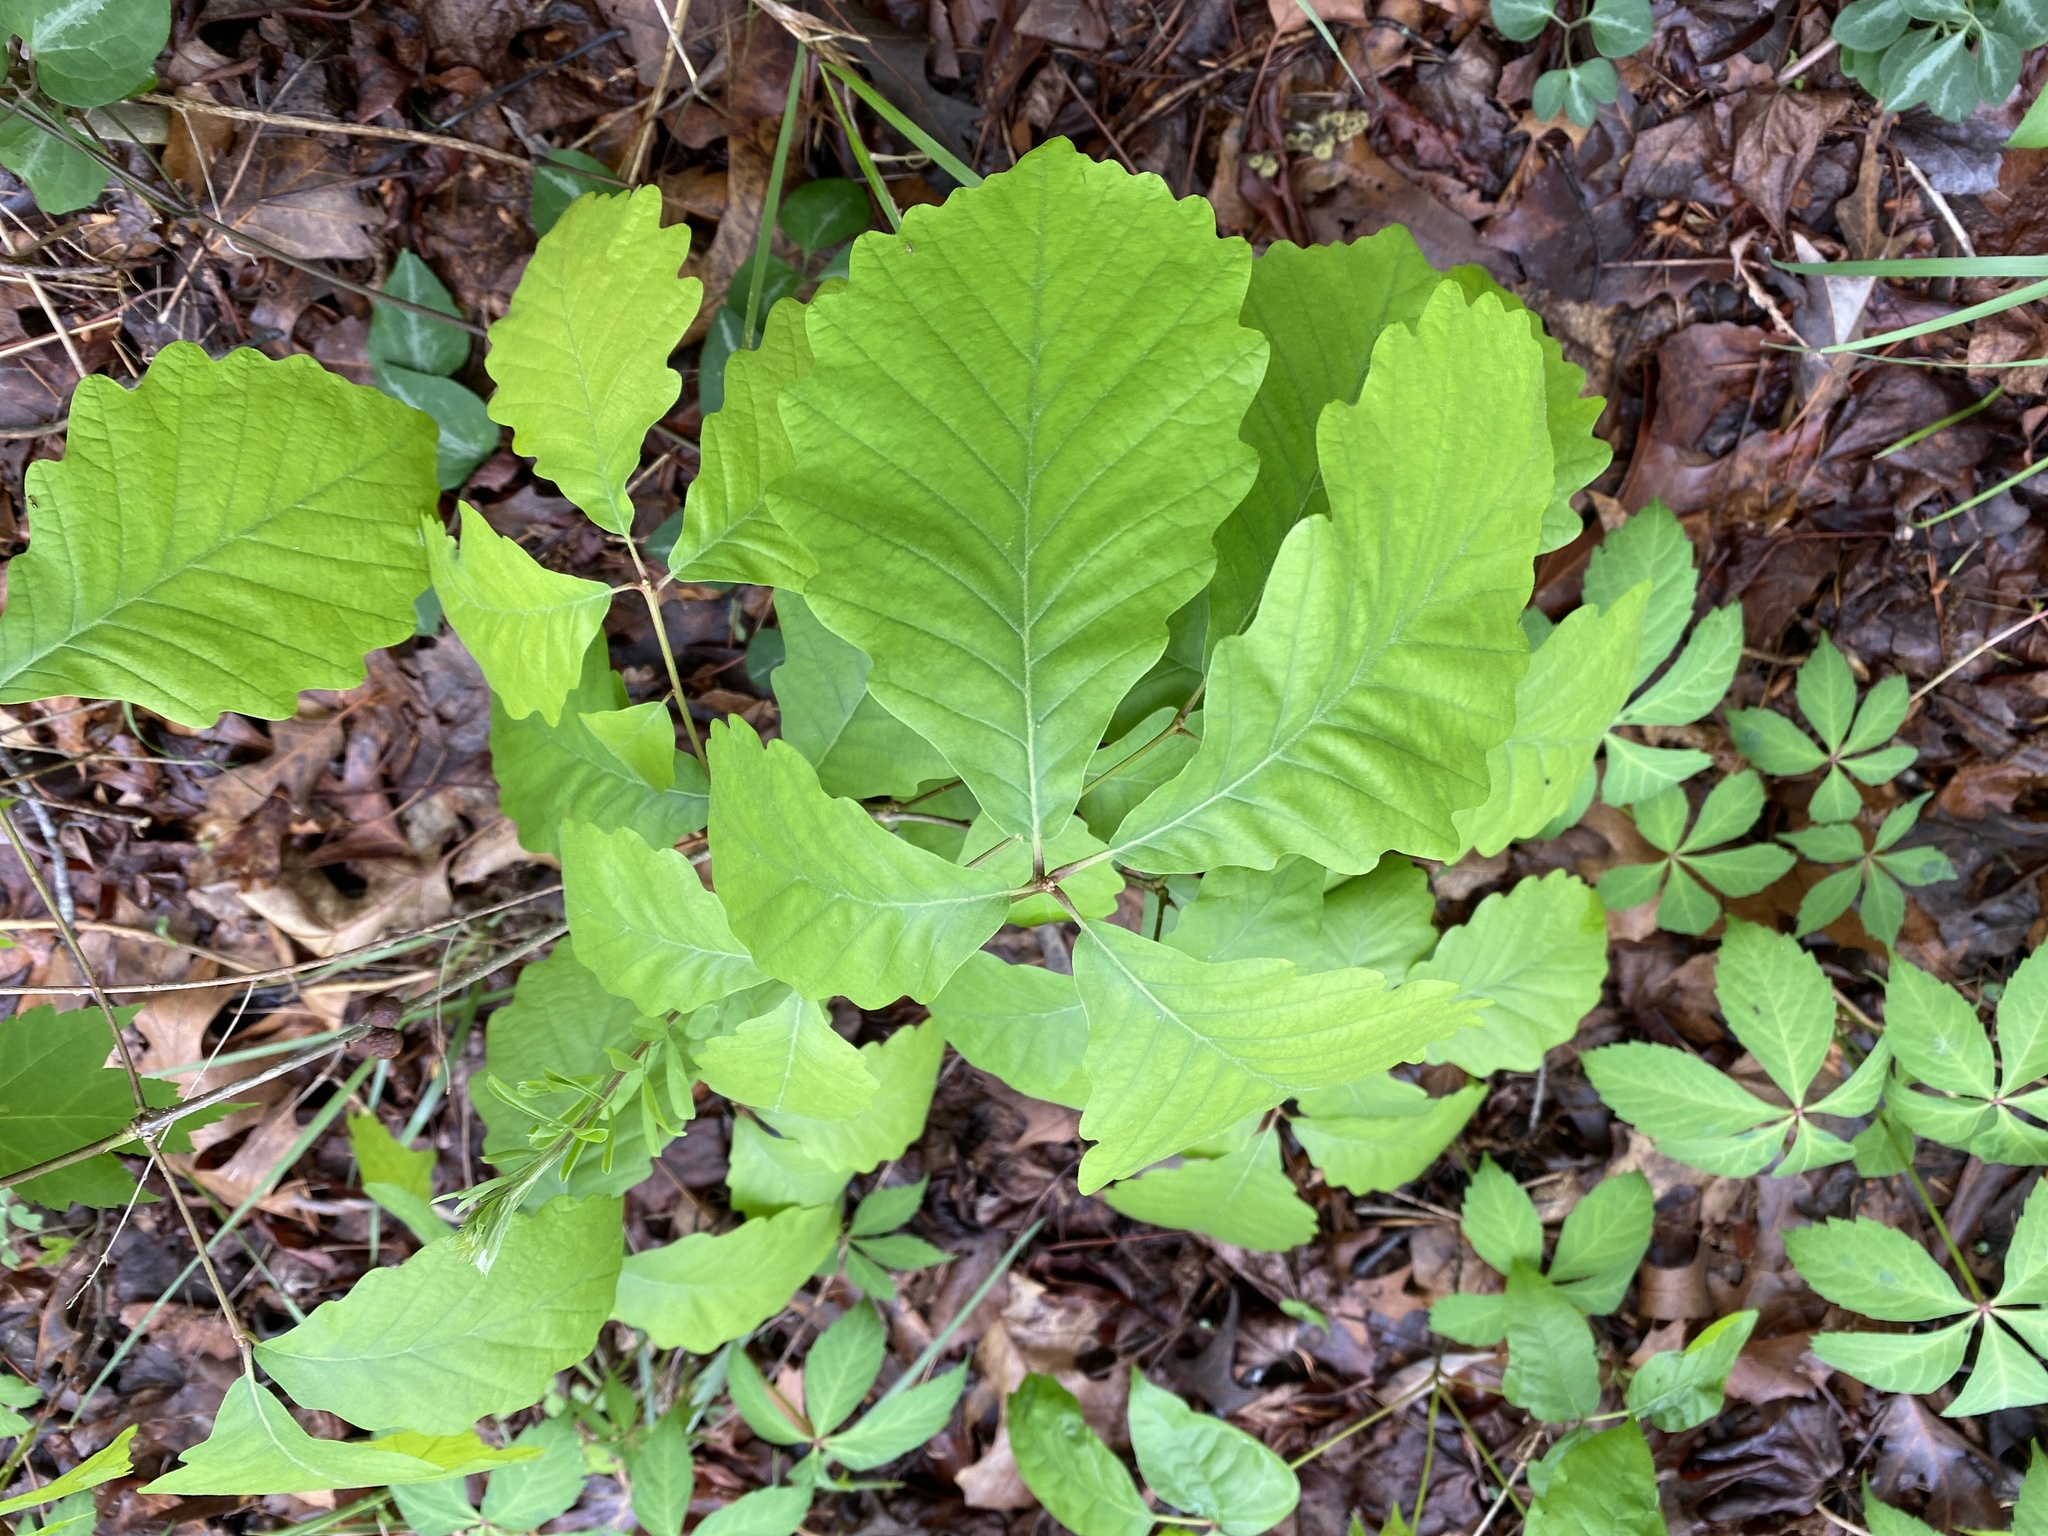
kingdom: Plantae
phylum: Tracheophyta
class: Magnoliopsida
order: Fagales
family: Fagaceae
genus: Quercus
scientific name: Quercus montana
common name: Chestnut oak
